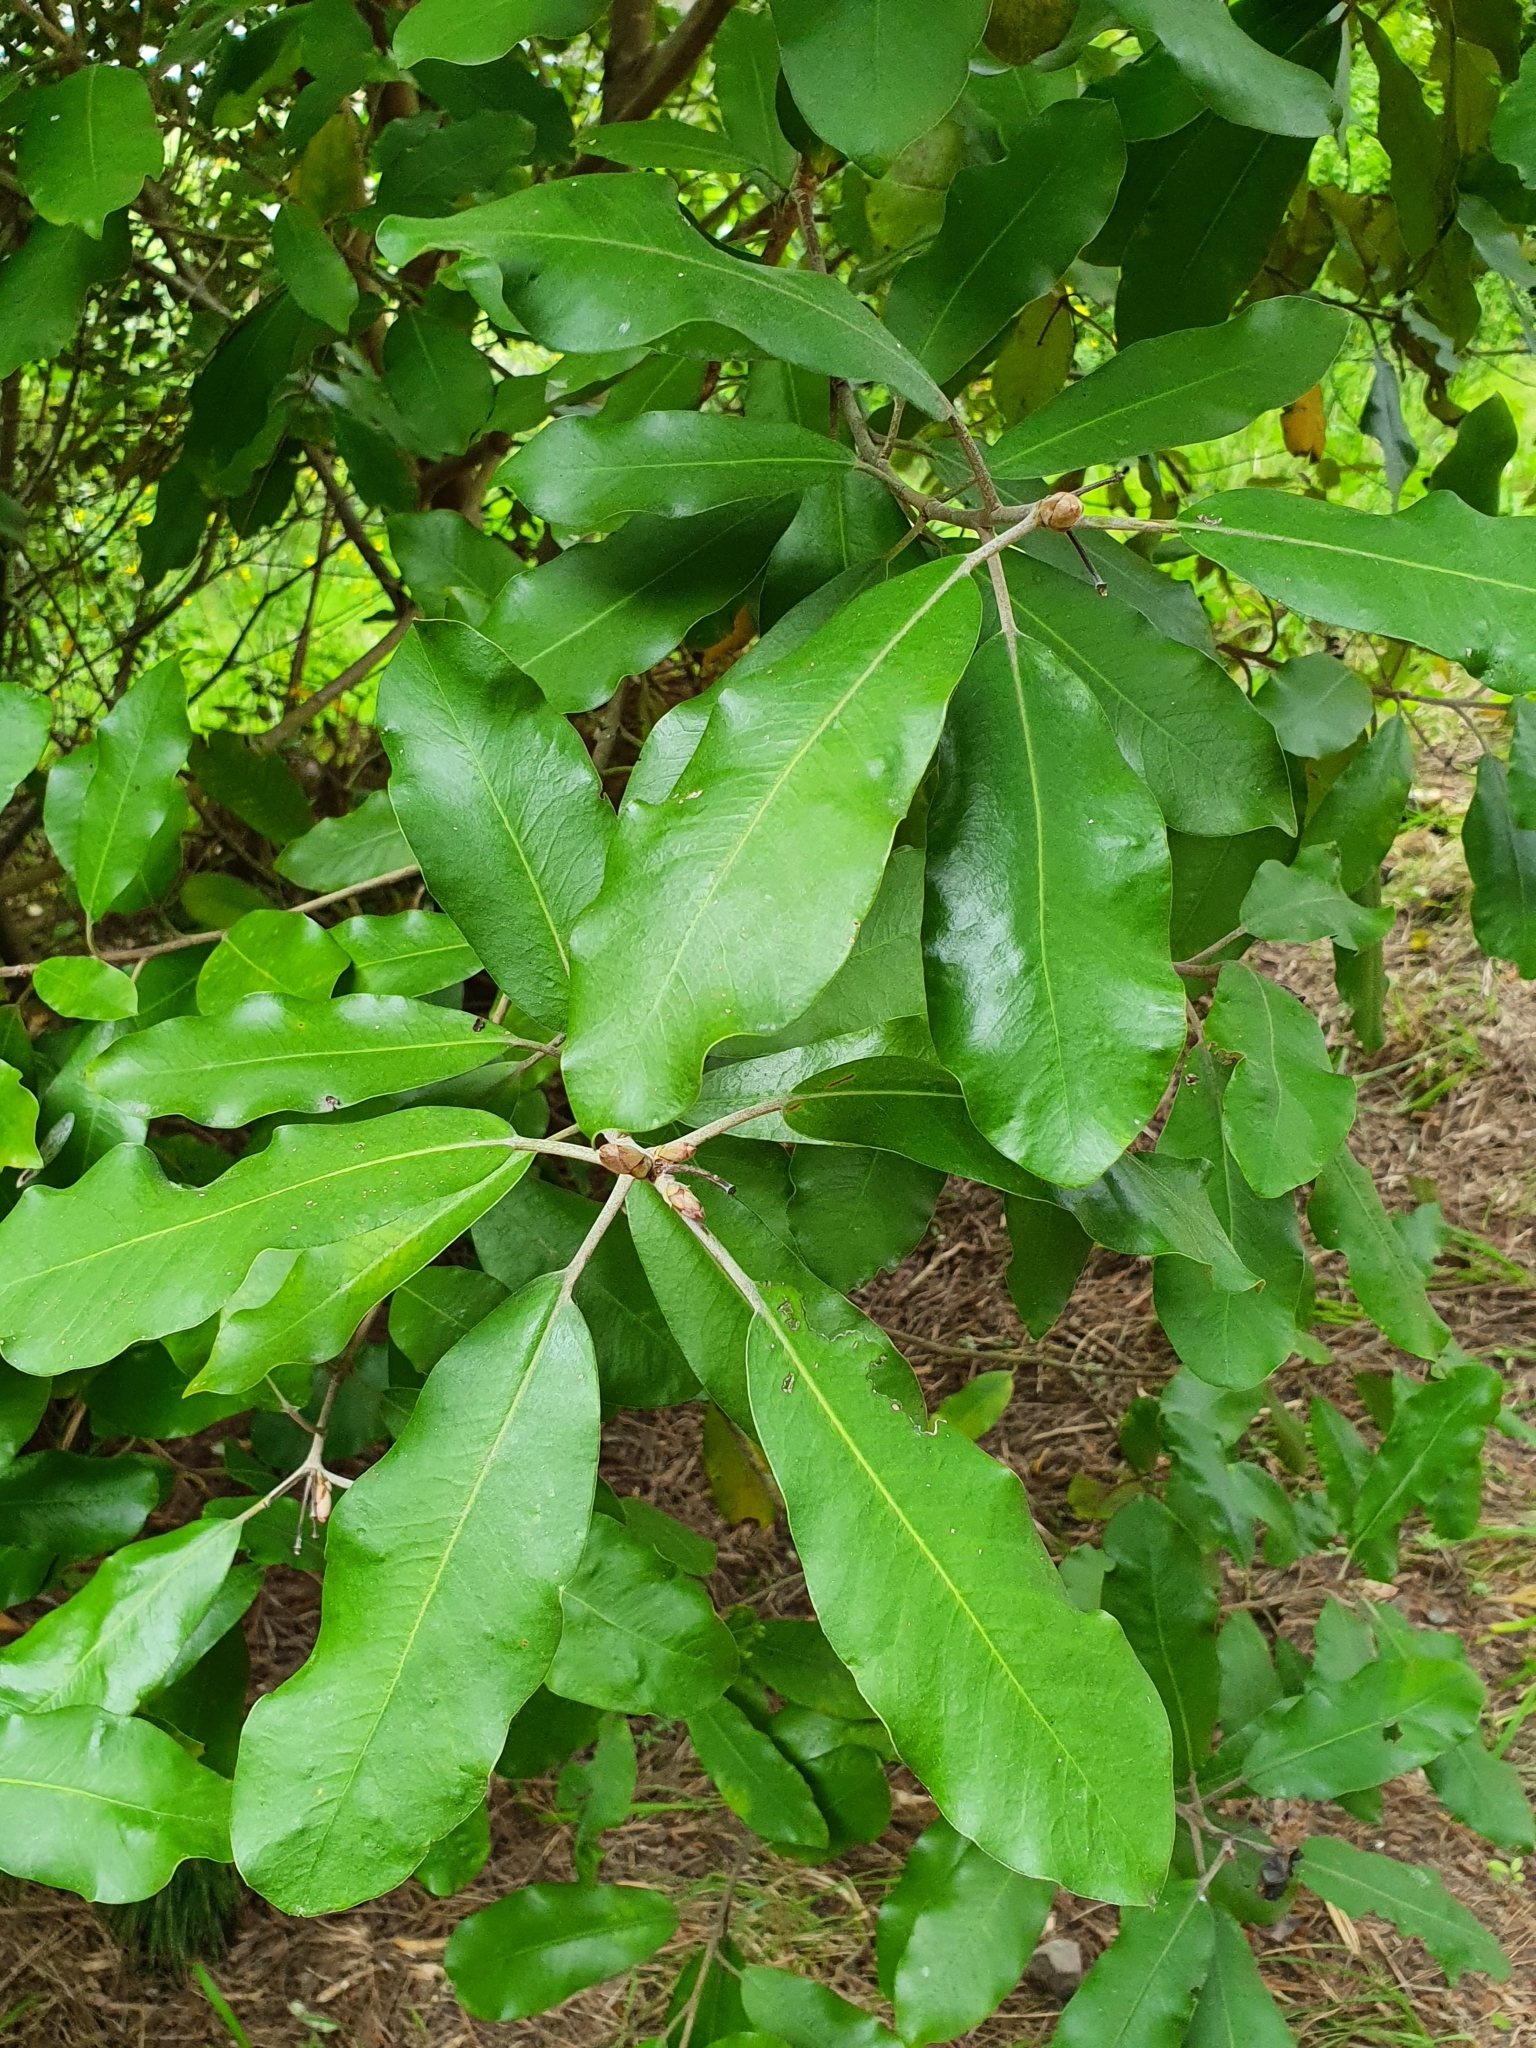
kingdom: Plantae
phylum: Tracheophyta
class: Magnoliopsida
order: Apiales
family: Pittosporaceae
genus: Pittosporum
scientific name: Pittosporum ralphii
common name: Ralph's desertwillow
